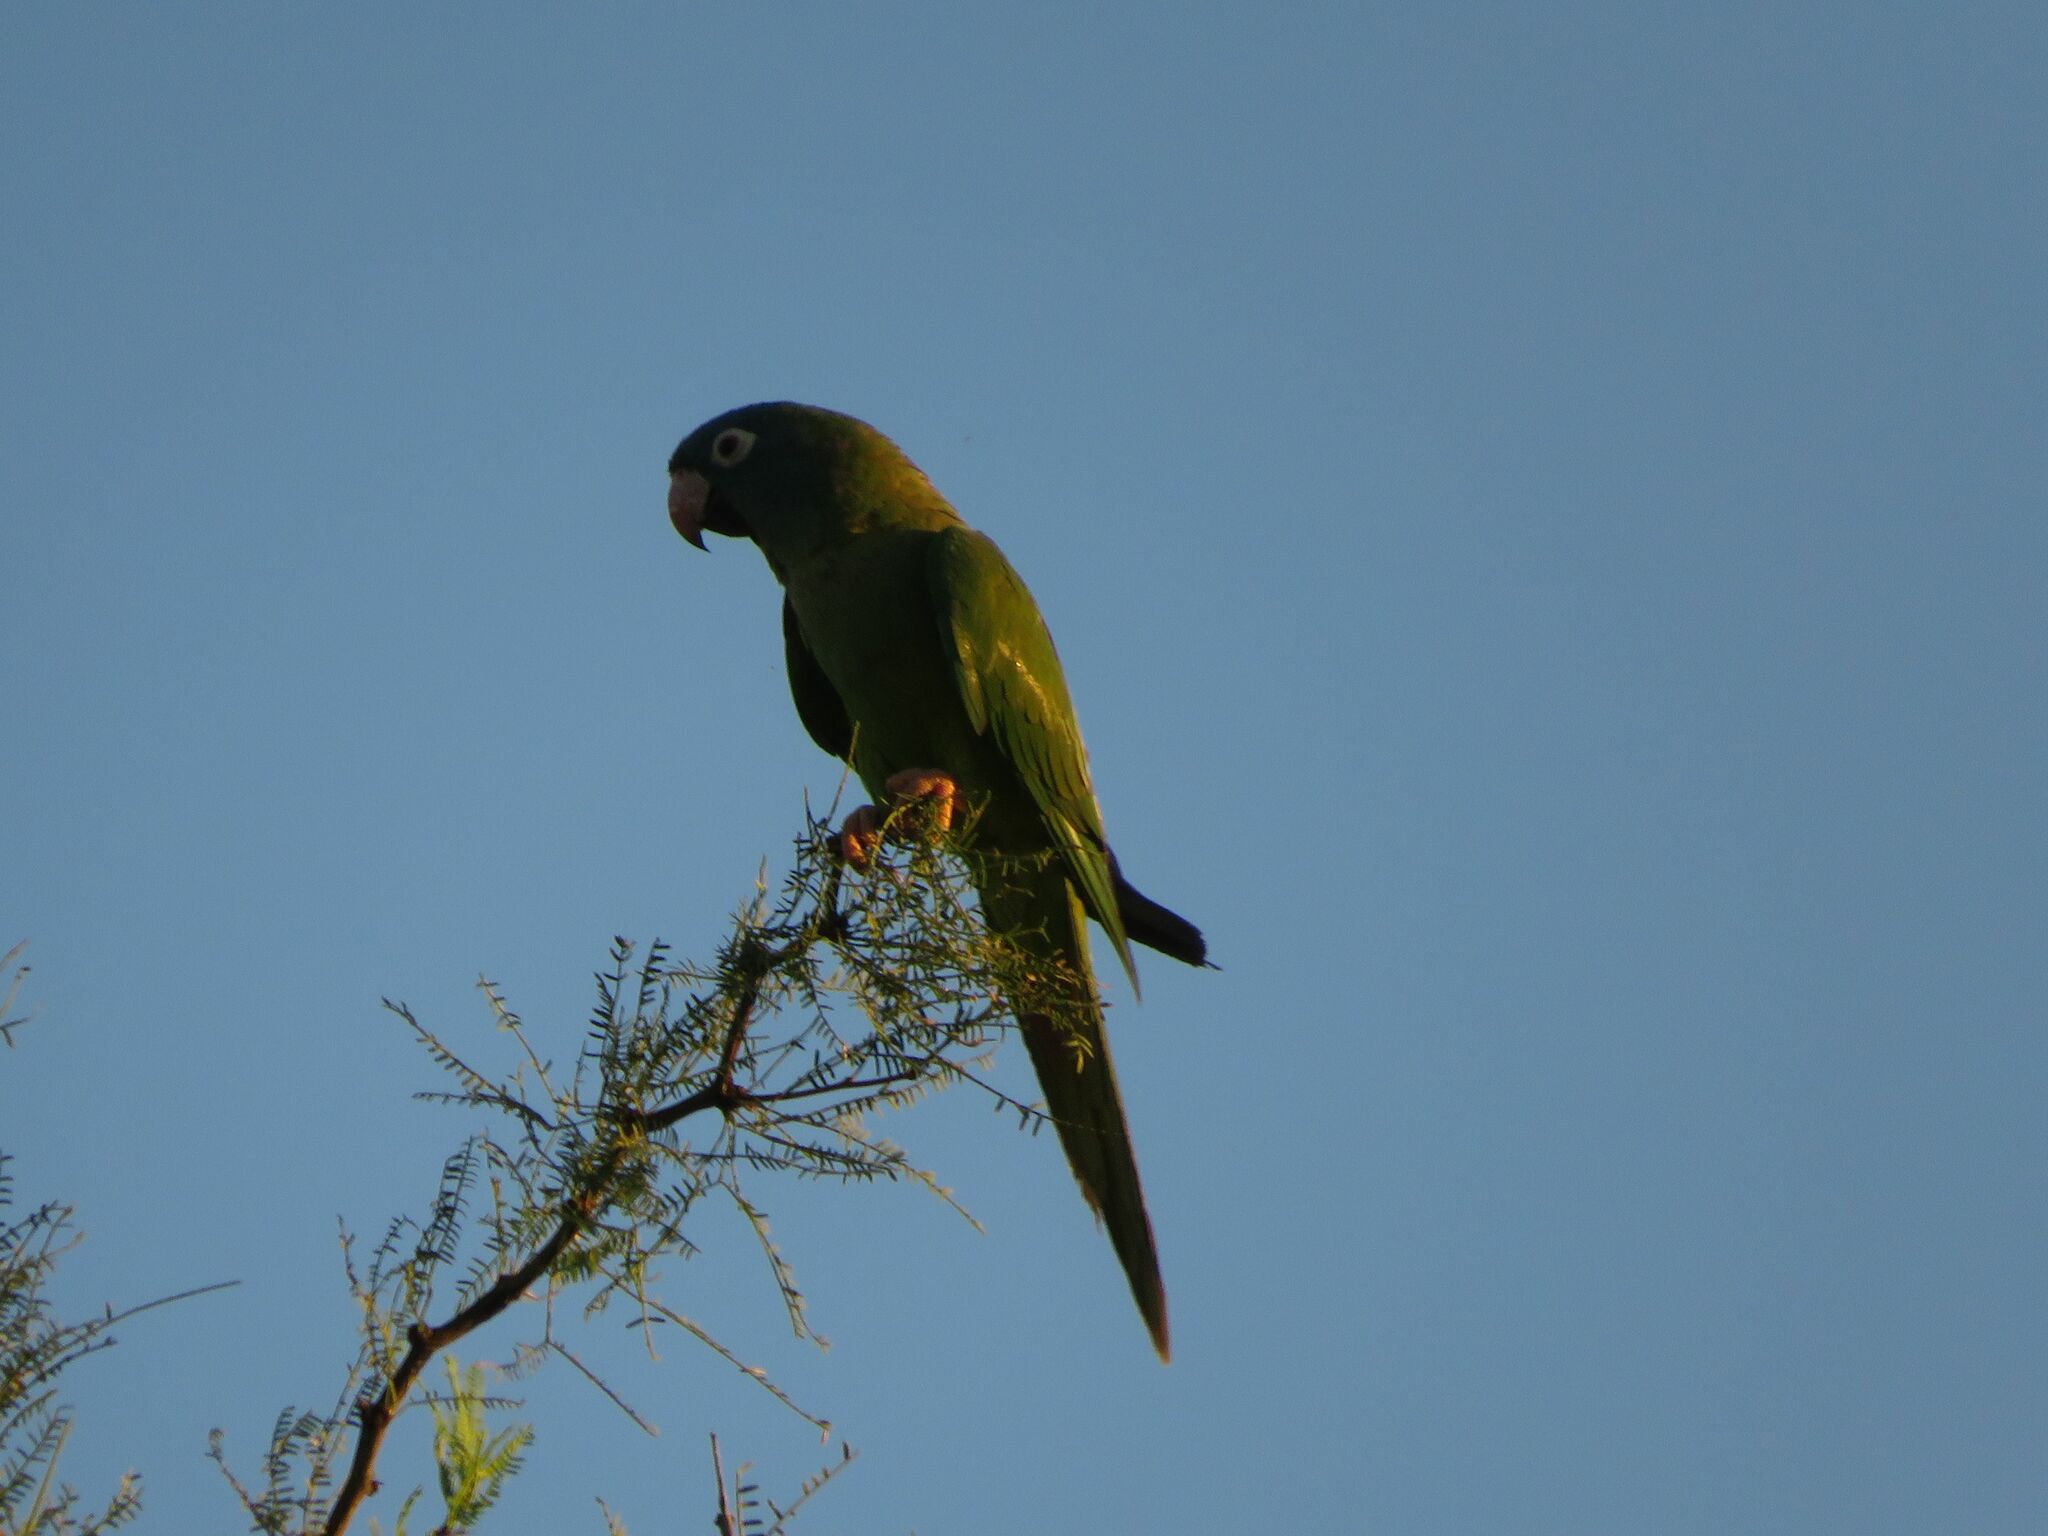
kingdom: Animalia
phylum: Chordata
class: Aves
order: Psittaciformes
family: Psittacidae
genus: Aratinga
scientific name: Aratinga acuticaudata
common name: Blue-crowned parakeet
